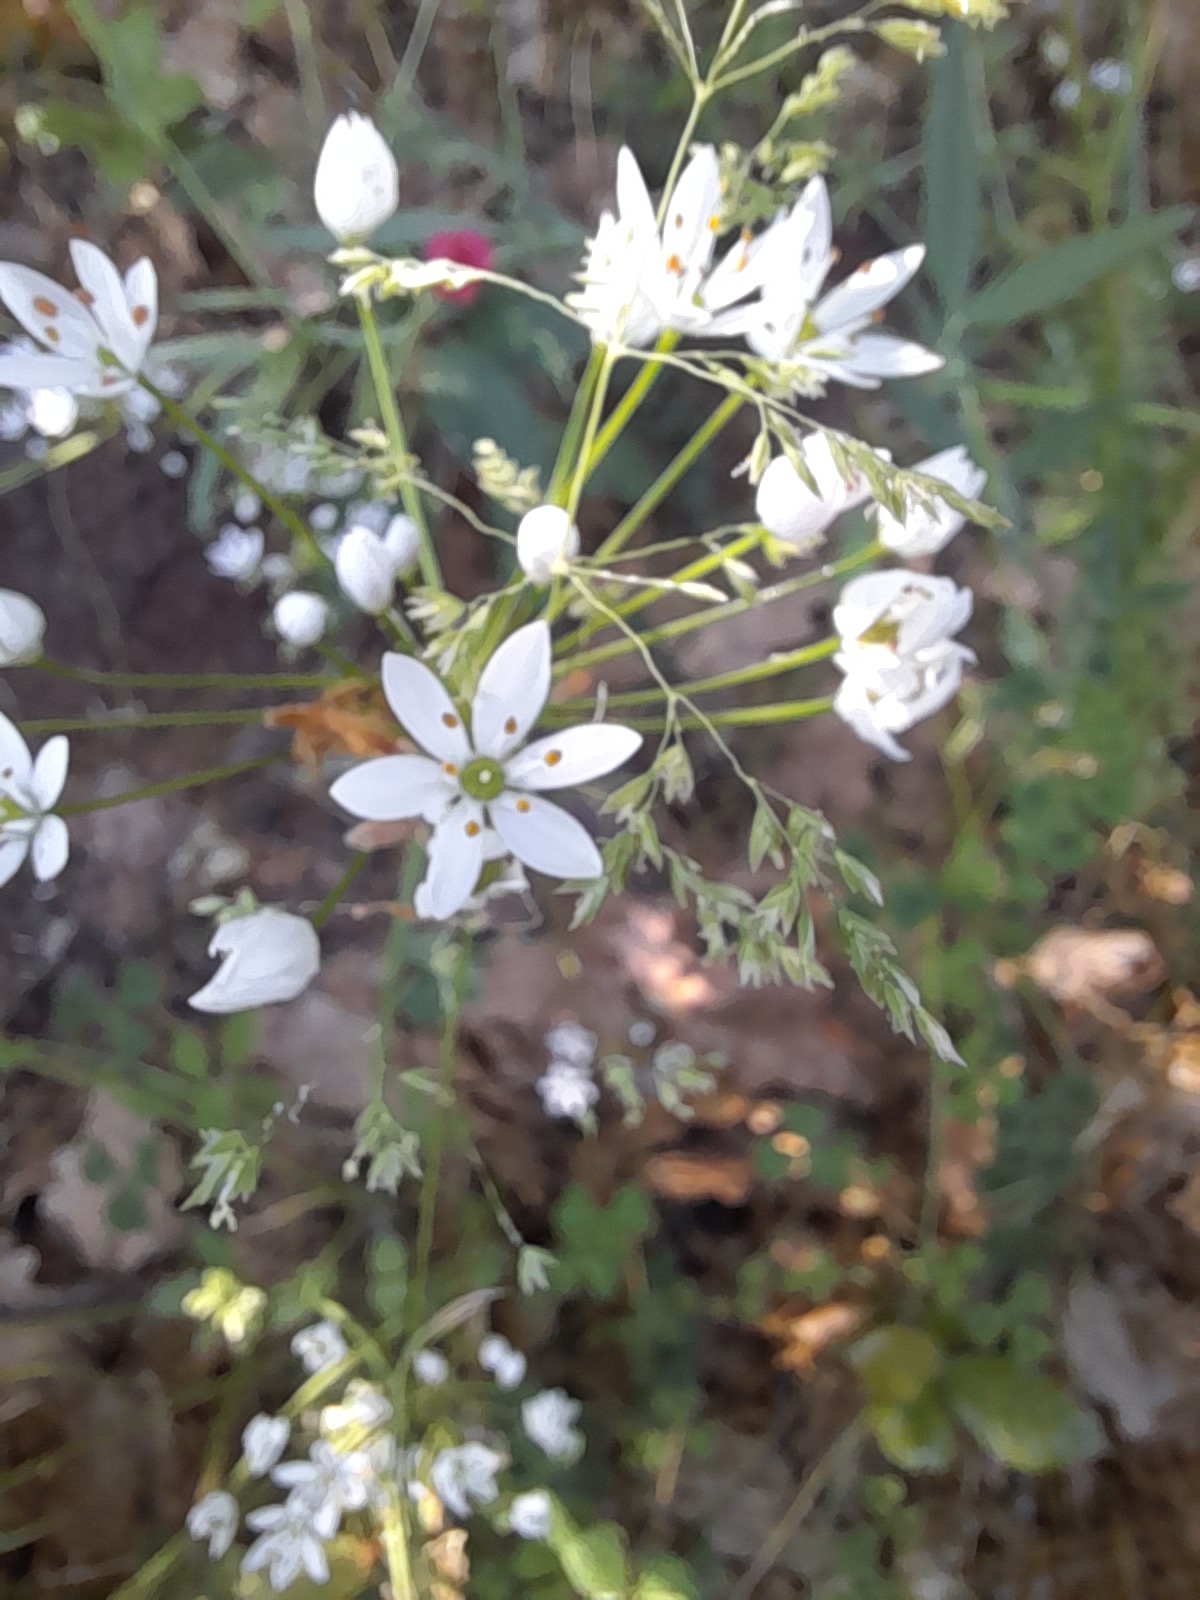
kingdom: Plantae
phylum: Tracheophyta
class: Liliopsida
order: Asparagales
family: Amaryllidaceae
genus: Allium
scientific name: Allium subhirsutum
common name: Hairy garlic
